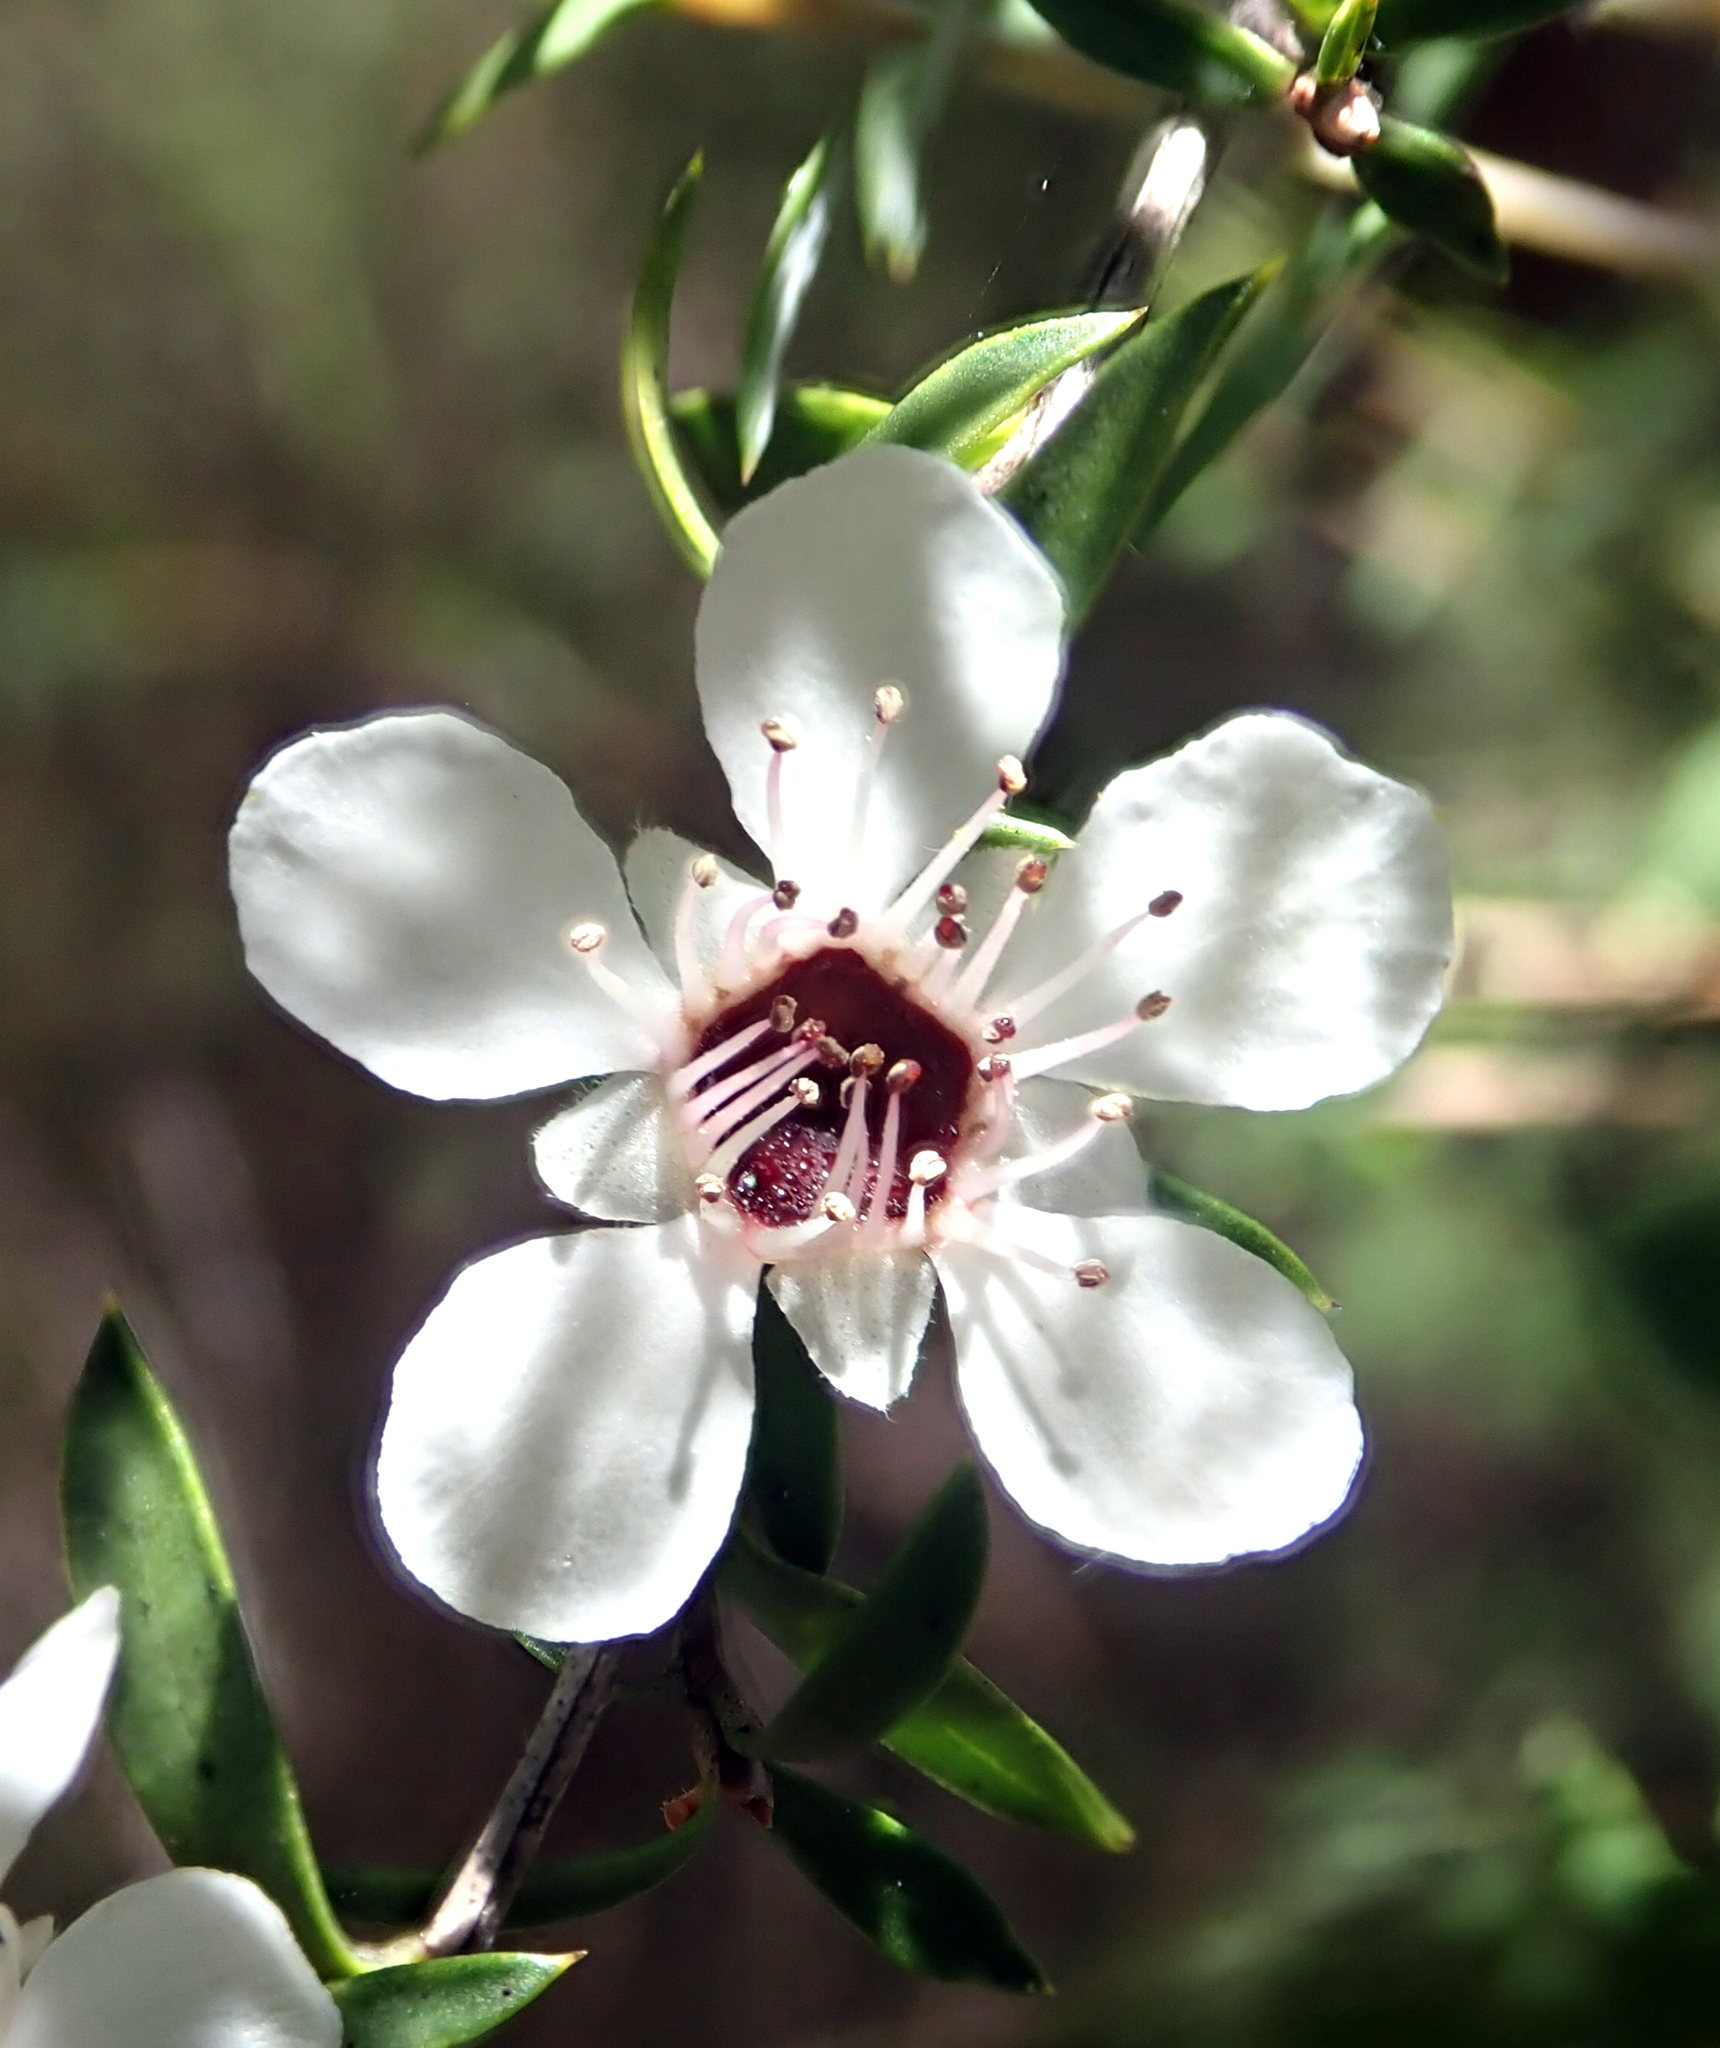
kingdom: Plantae
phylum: Tracheophyta
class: Magnoliopsida
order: Myrtales
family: Myrtaceae
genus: Leptospermum
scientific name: Leptospermum scoparium
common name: Broom tea-tree
